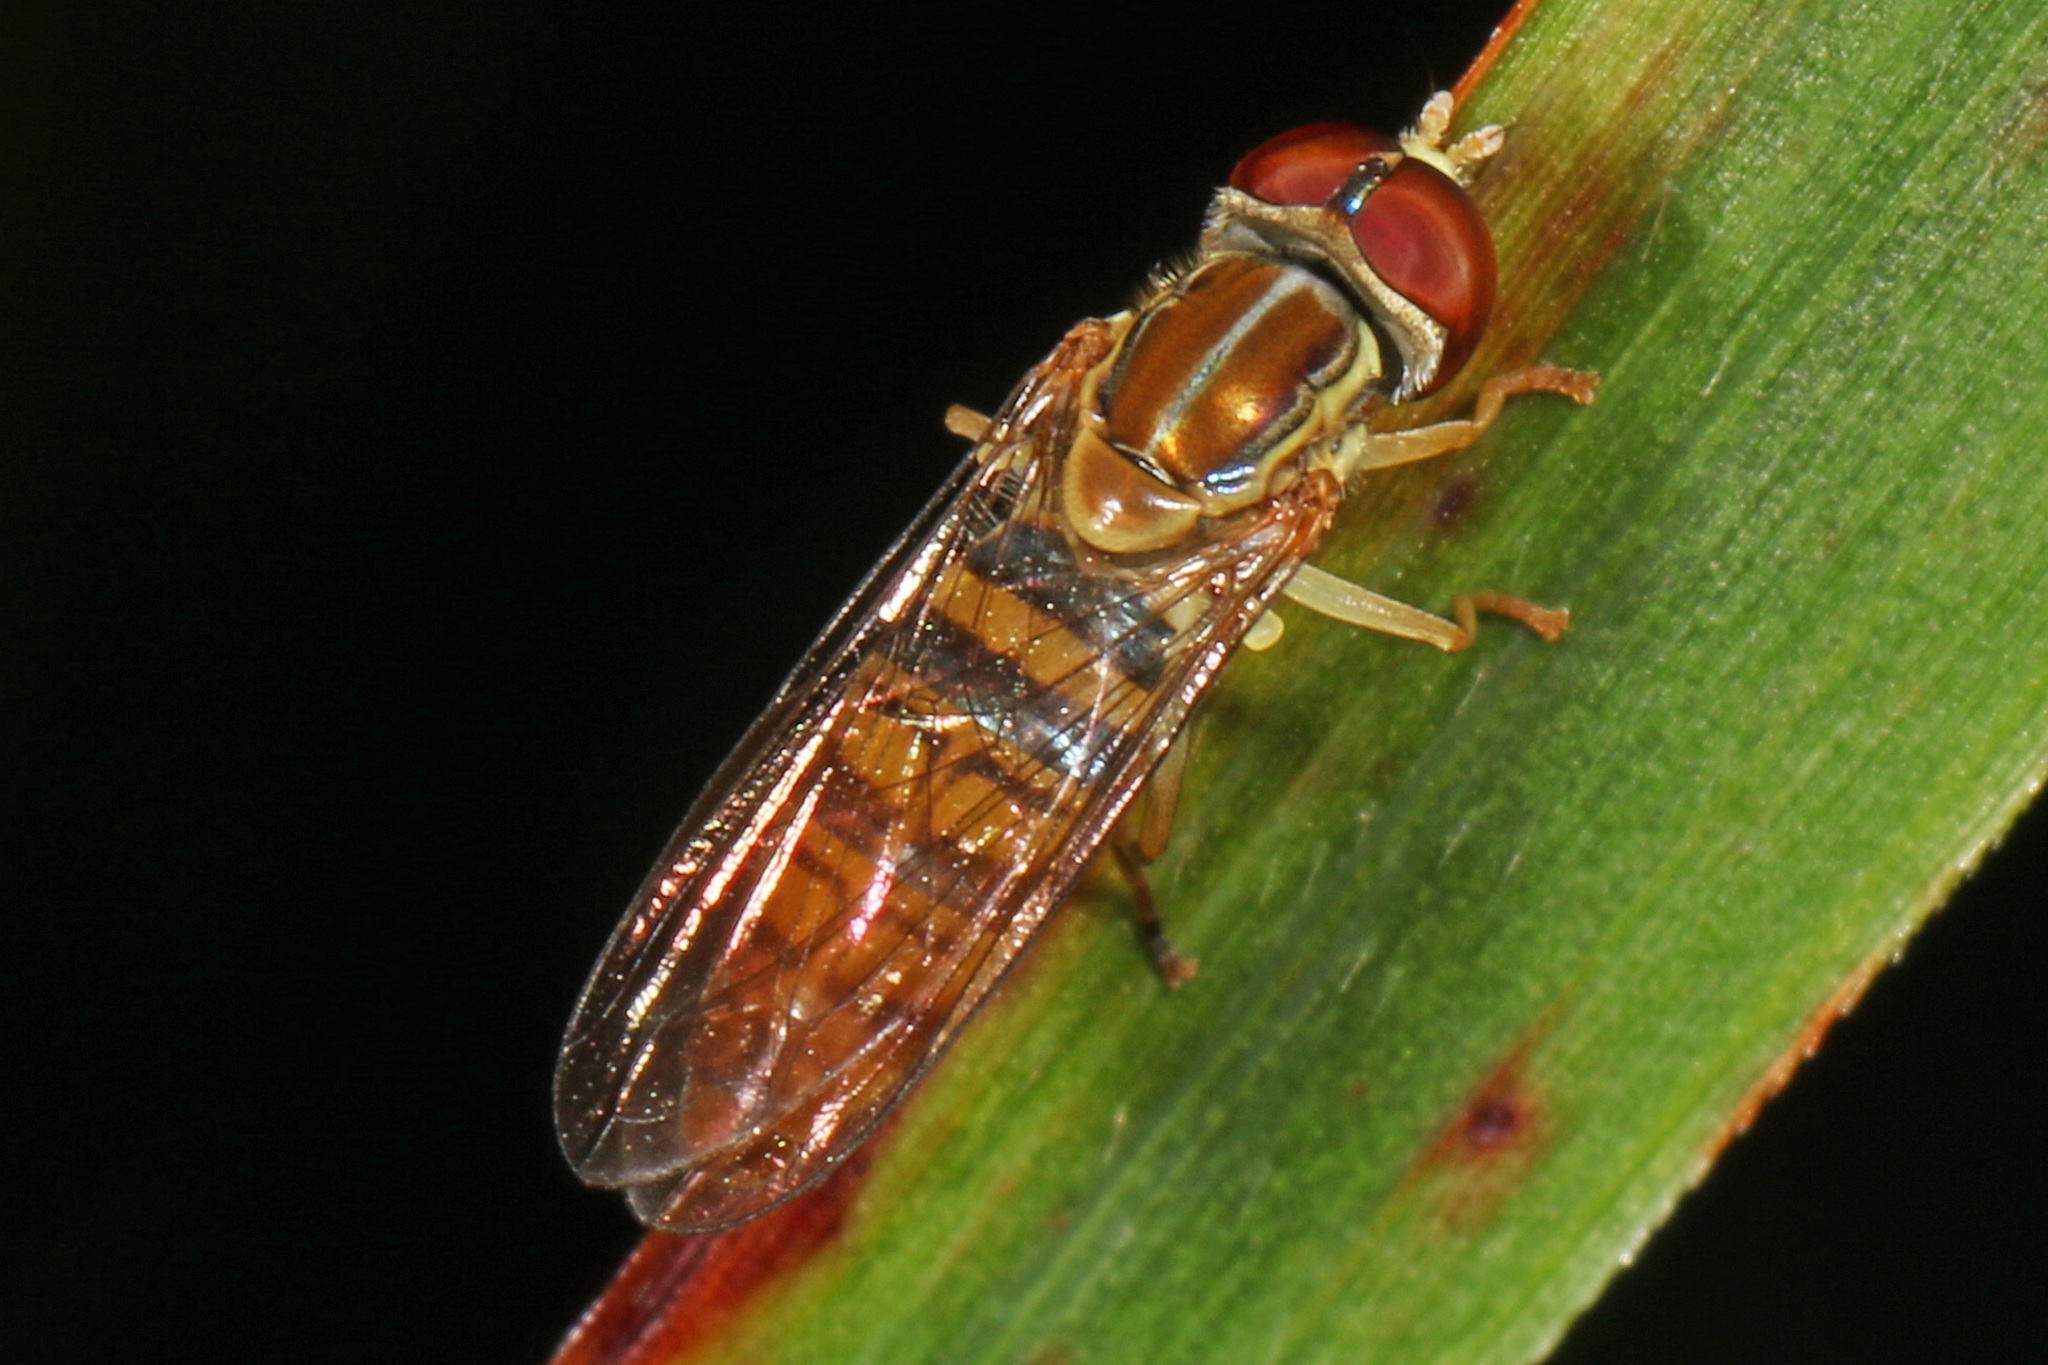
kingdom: Animalia
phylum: Arthropoda
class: Insecta
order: Diptera
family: Syrphidae
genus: Toxomerus
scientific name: Toxomerus politus
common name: Maize calligrapher
